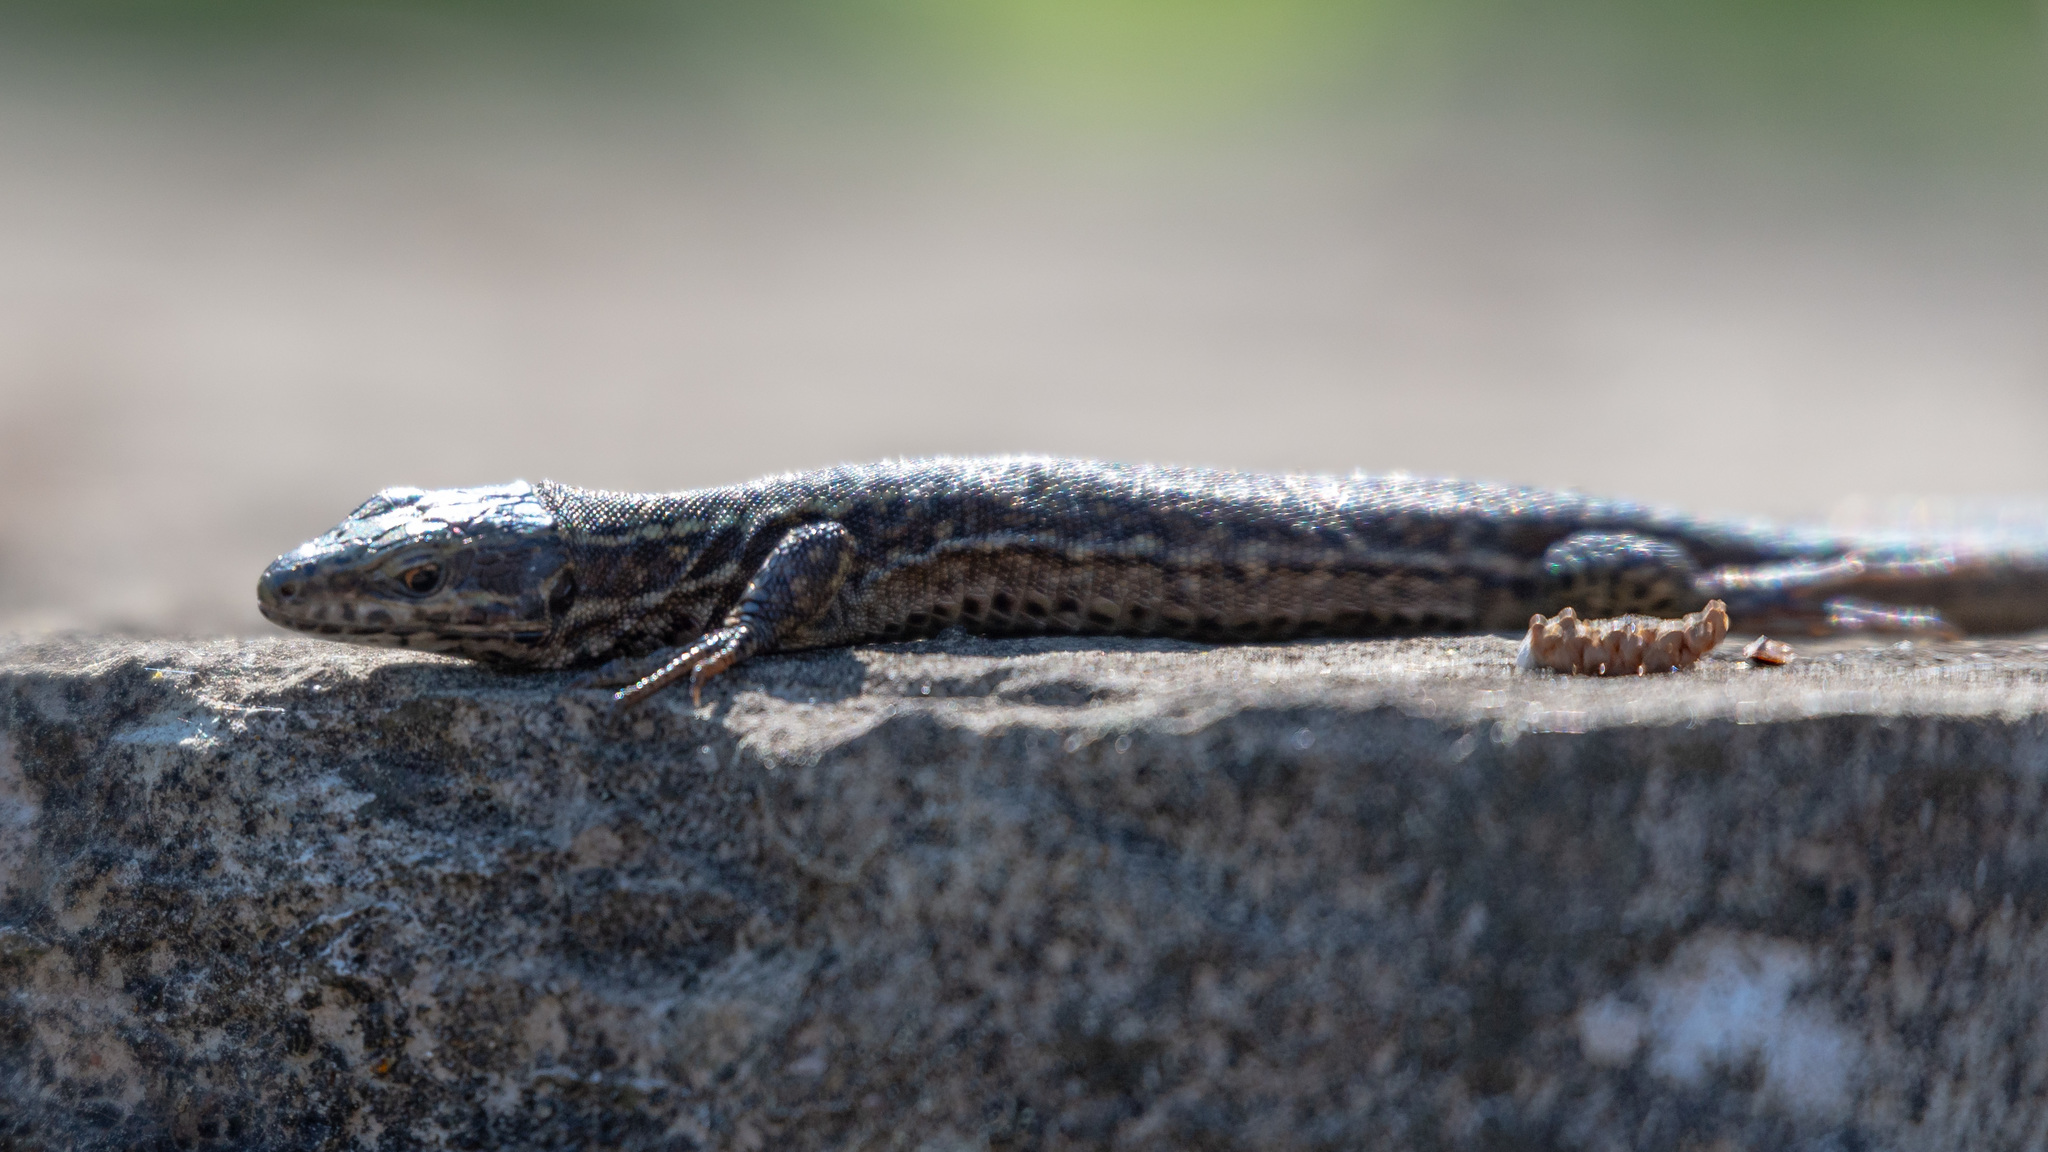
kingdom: Animalia
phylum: Chordata
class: Squamata
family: Lacertidae
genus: Podarcis
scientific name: Podarcis muralis
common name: Common wall lizard
